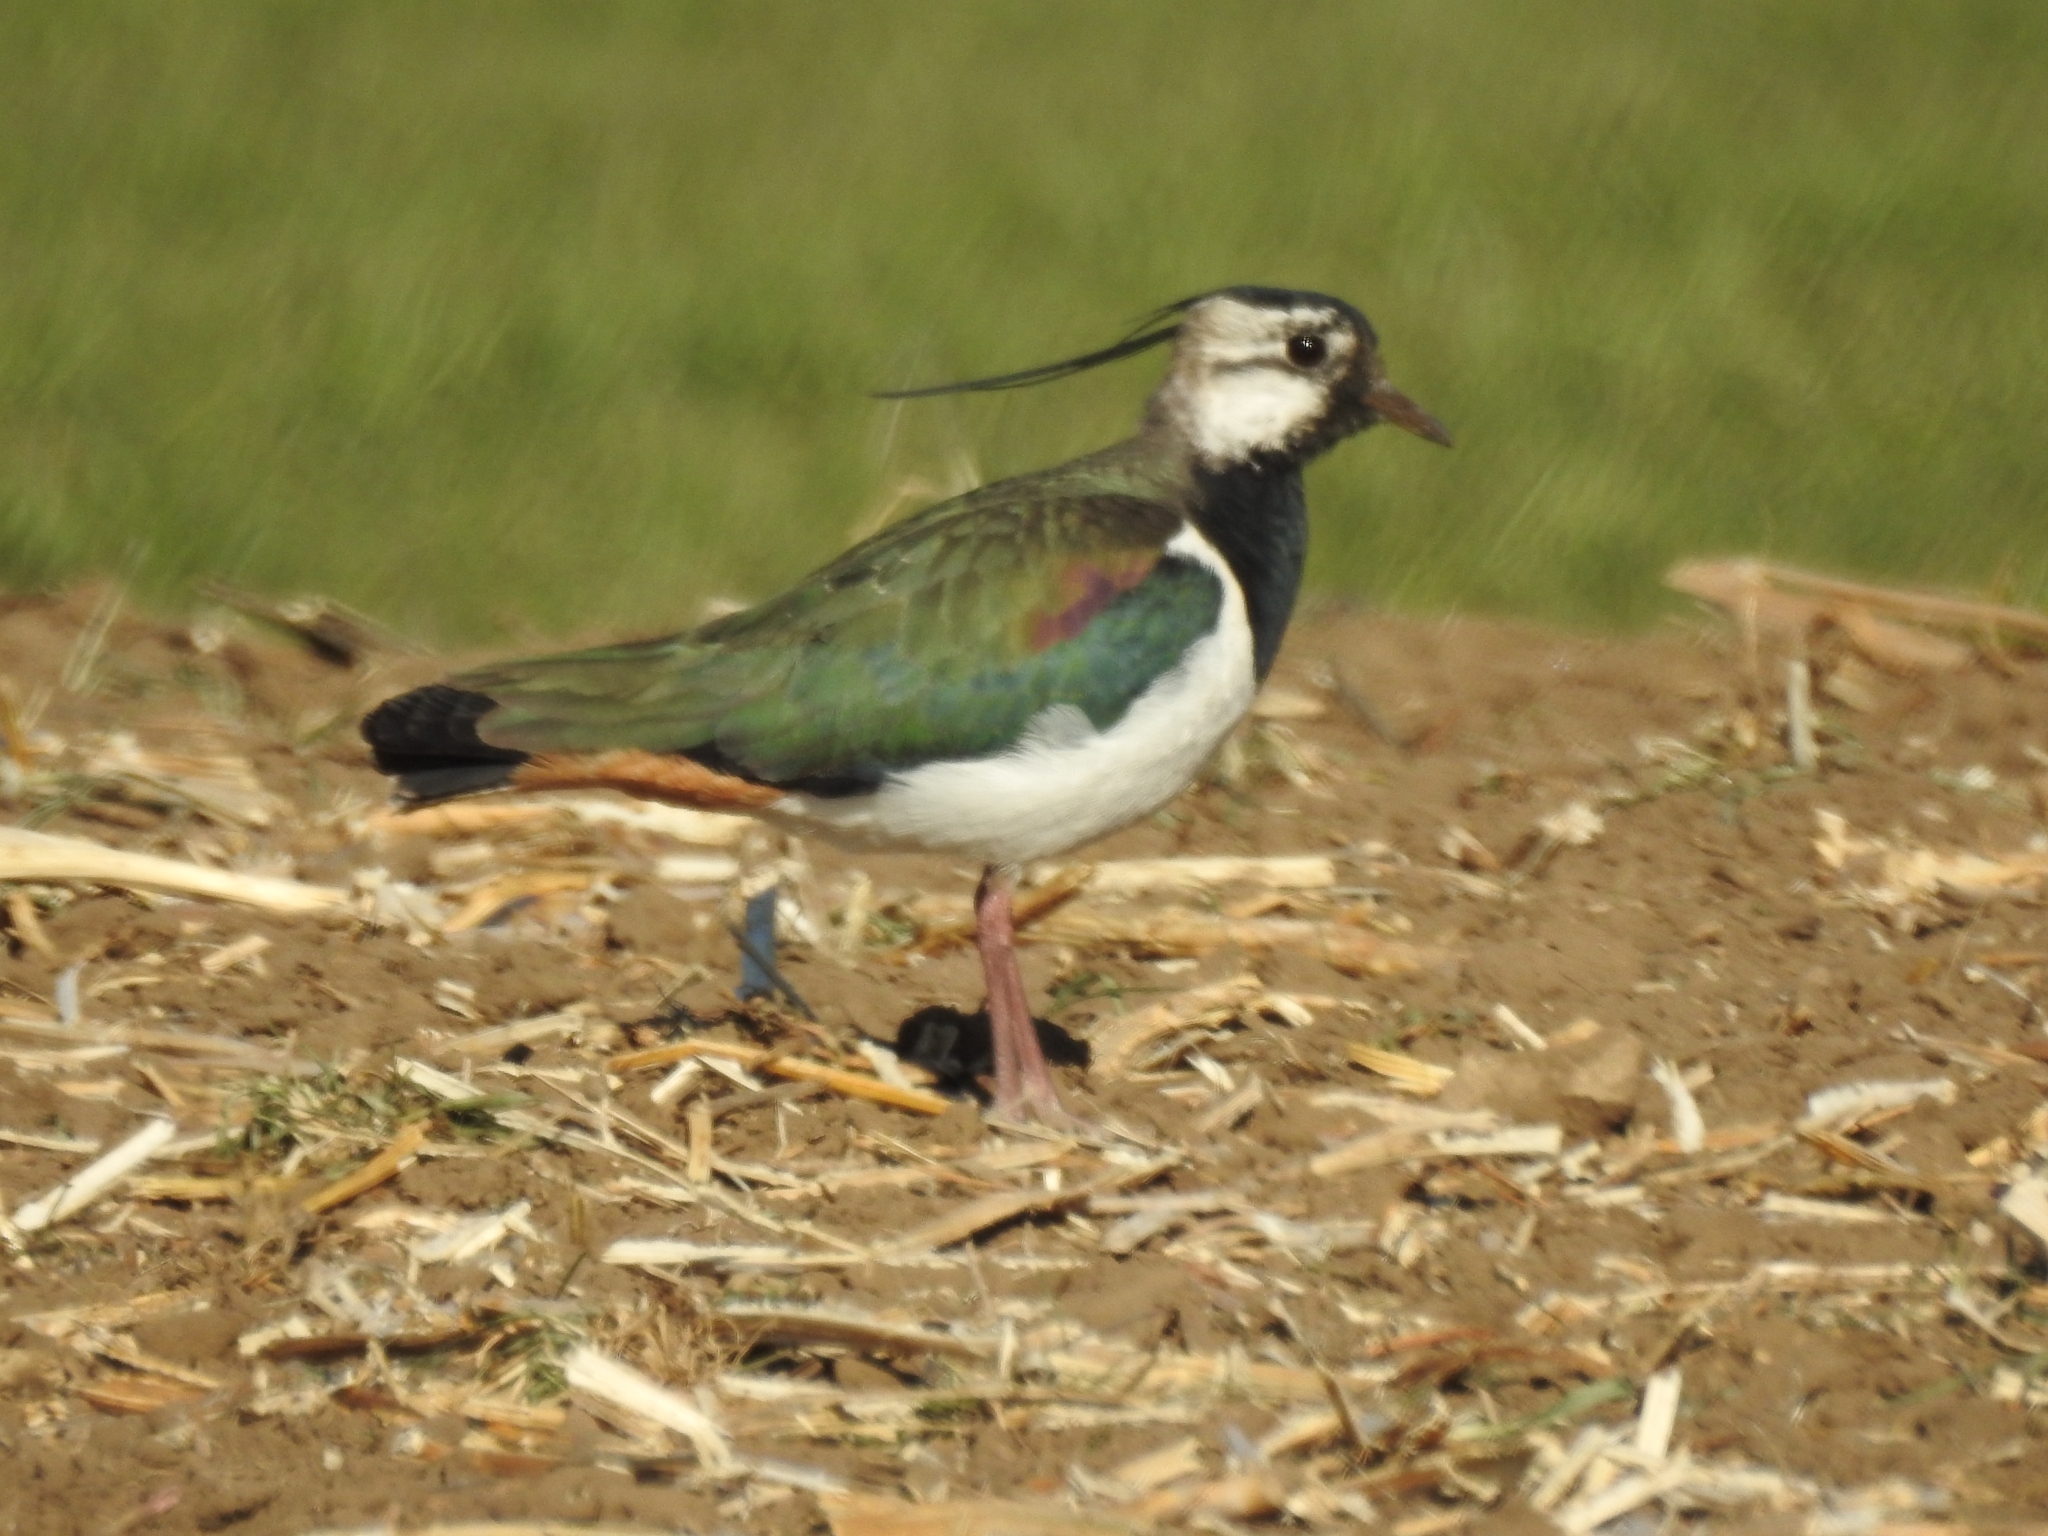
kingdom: Animalia
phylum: Chordata
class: Aves
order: Charadriiformes
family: Charadriidae
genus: Vanellus
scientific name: Vanellus vanellus
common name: Northern lapwing
